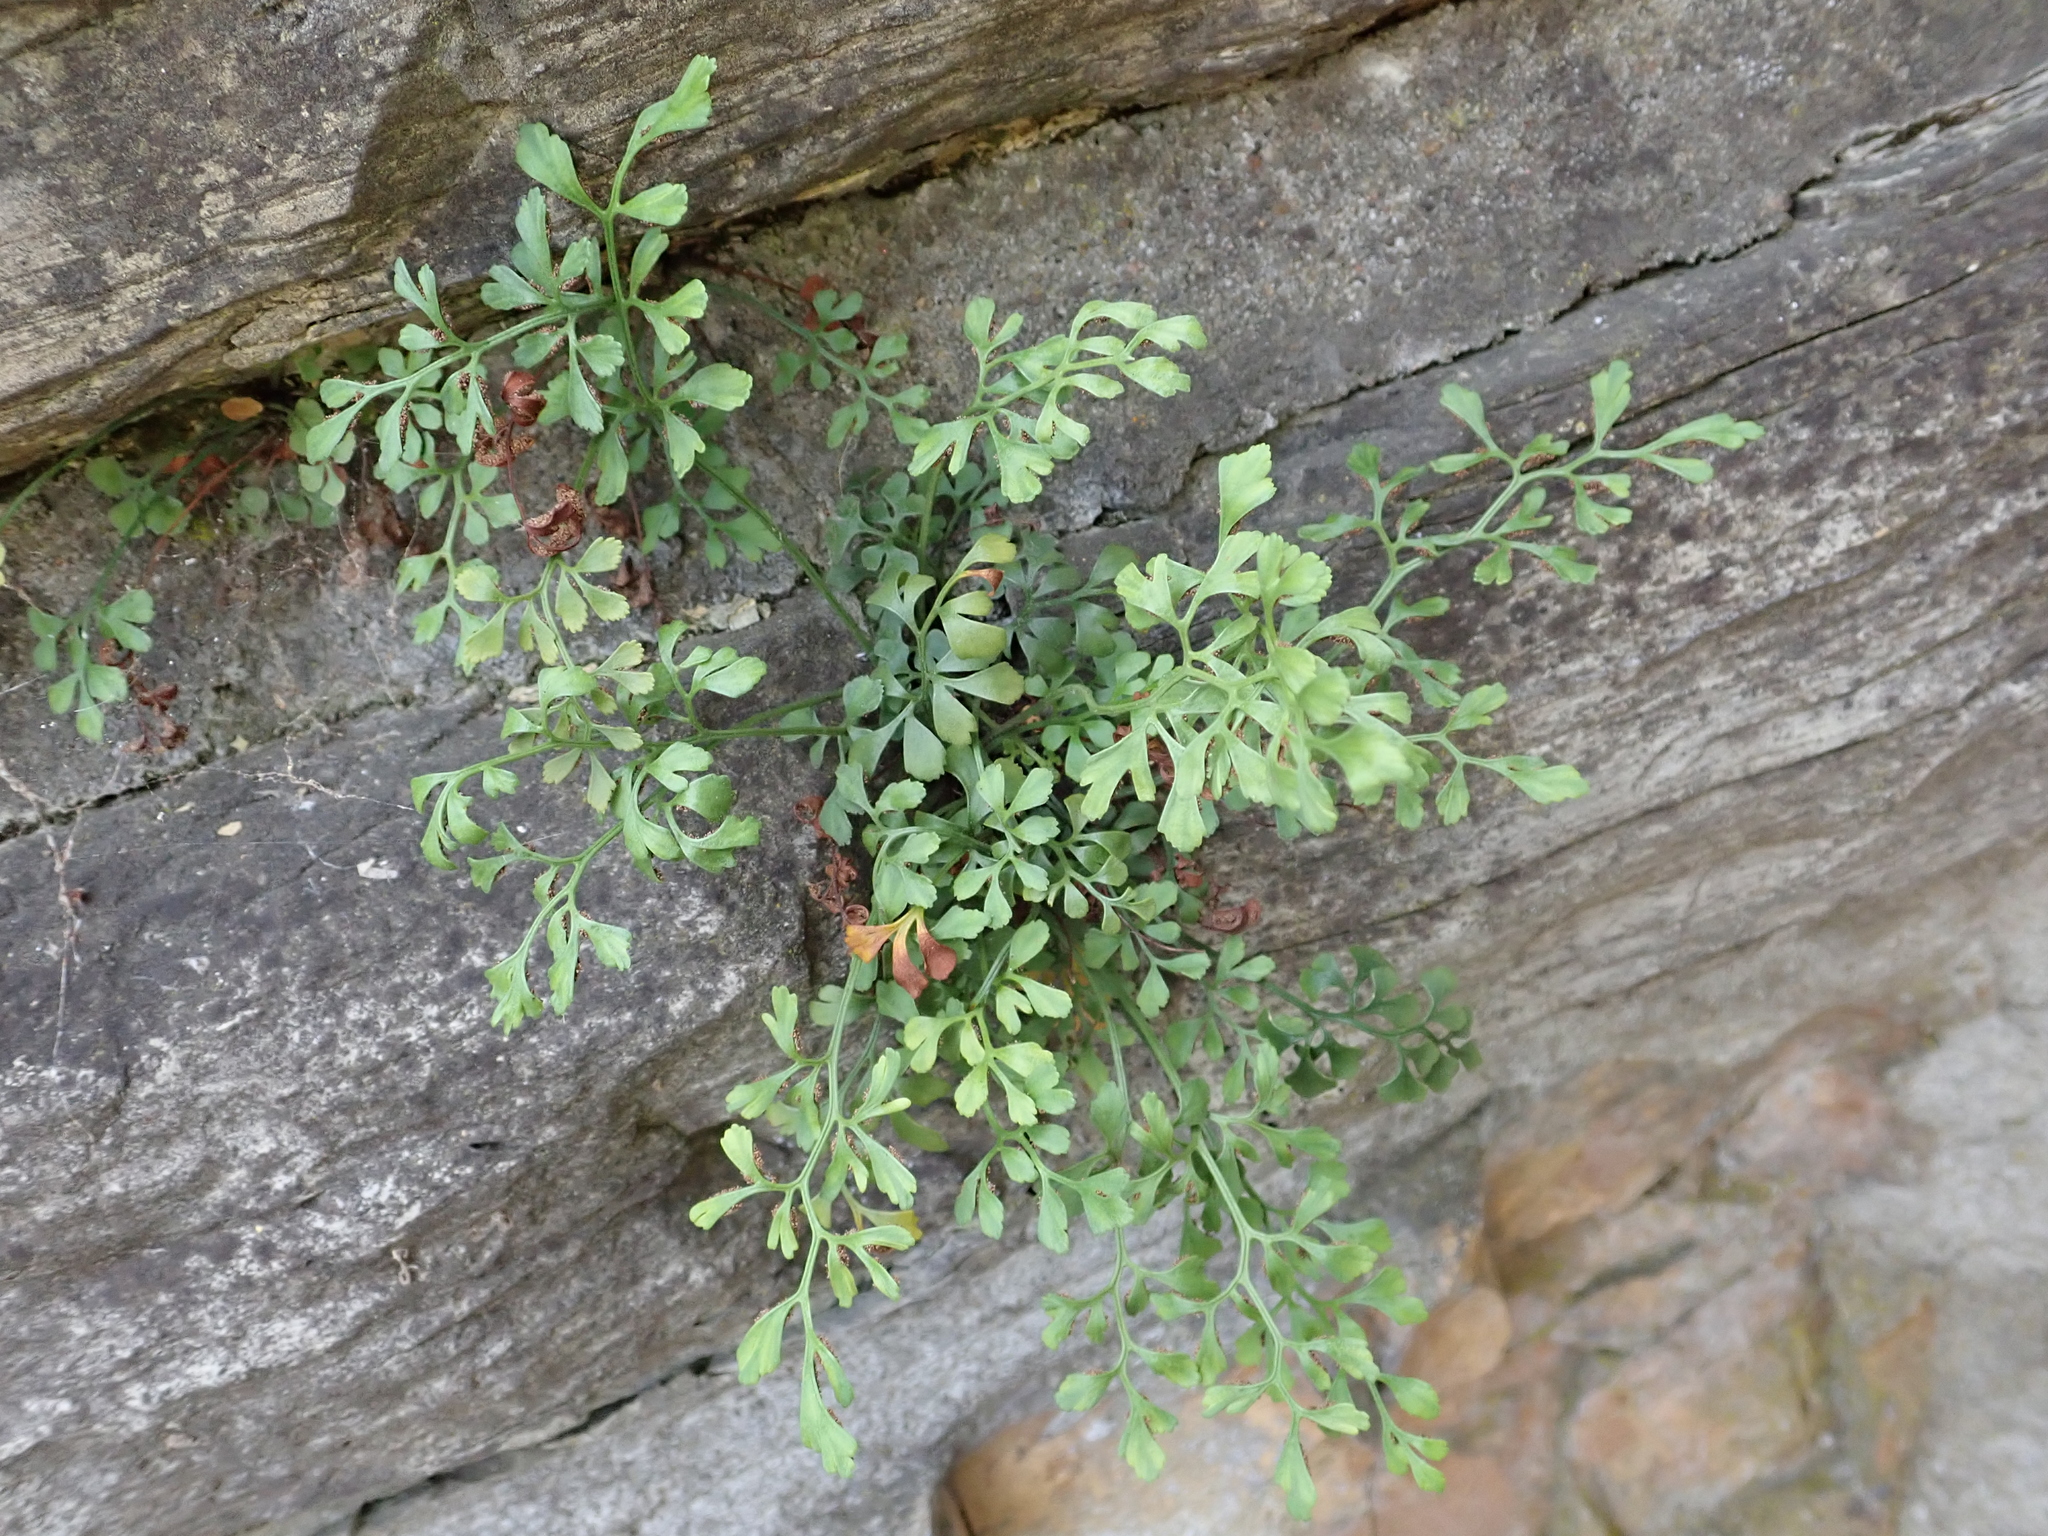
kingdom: Plantae
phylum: Tracheophyta
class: Polypodiopsida
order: Polypodiales
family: Aspleniaceae
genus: Asplenium
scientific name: Asplenium ruta-muraria
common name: Wall-rue
